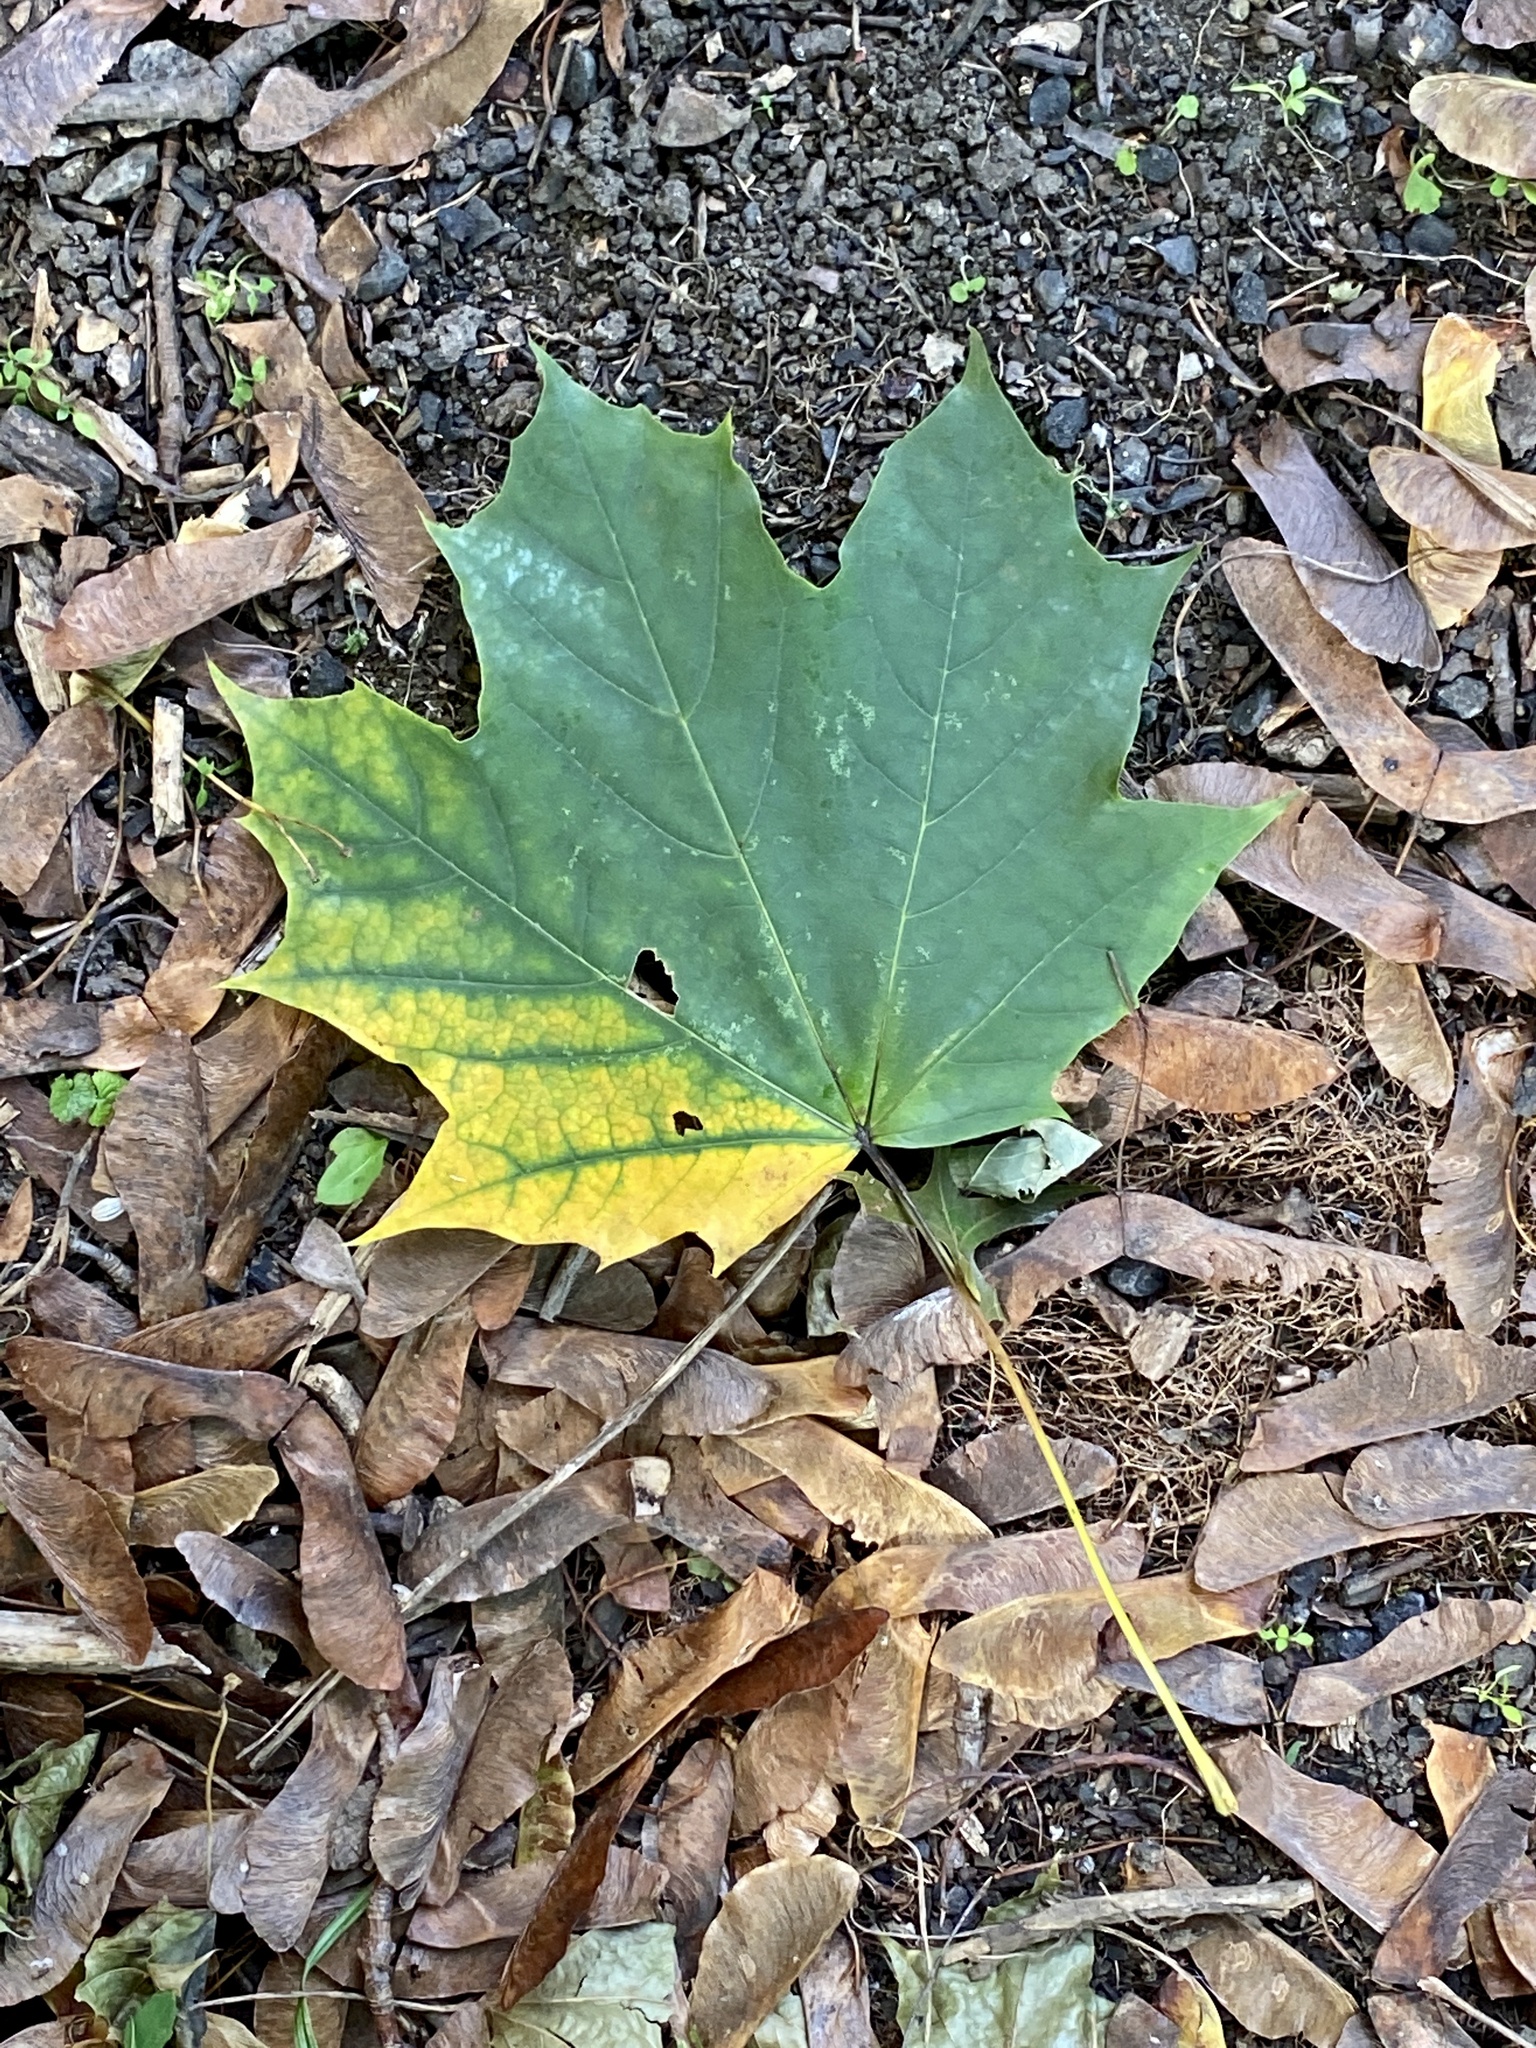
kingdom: Plantae
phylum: Tracheophyta
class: Magnoliopsida
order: Sapindales
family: Sapindaceae
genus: Acer
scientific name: Acer platanoides
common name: Norway maple
